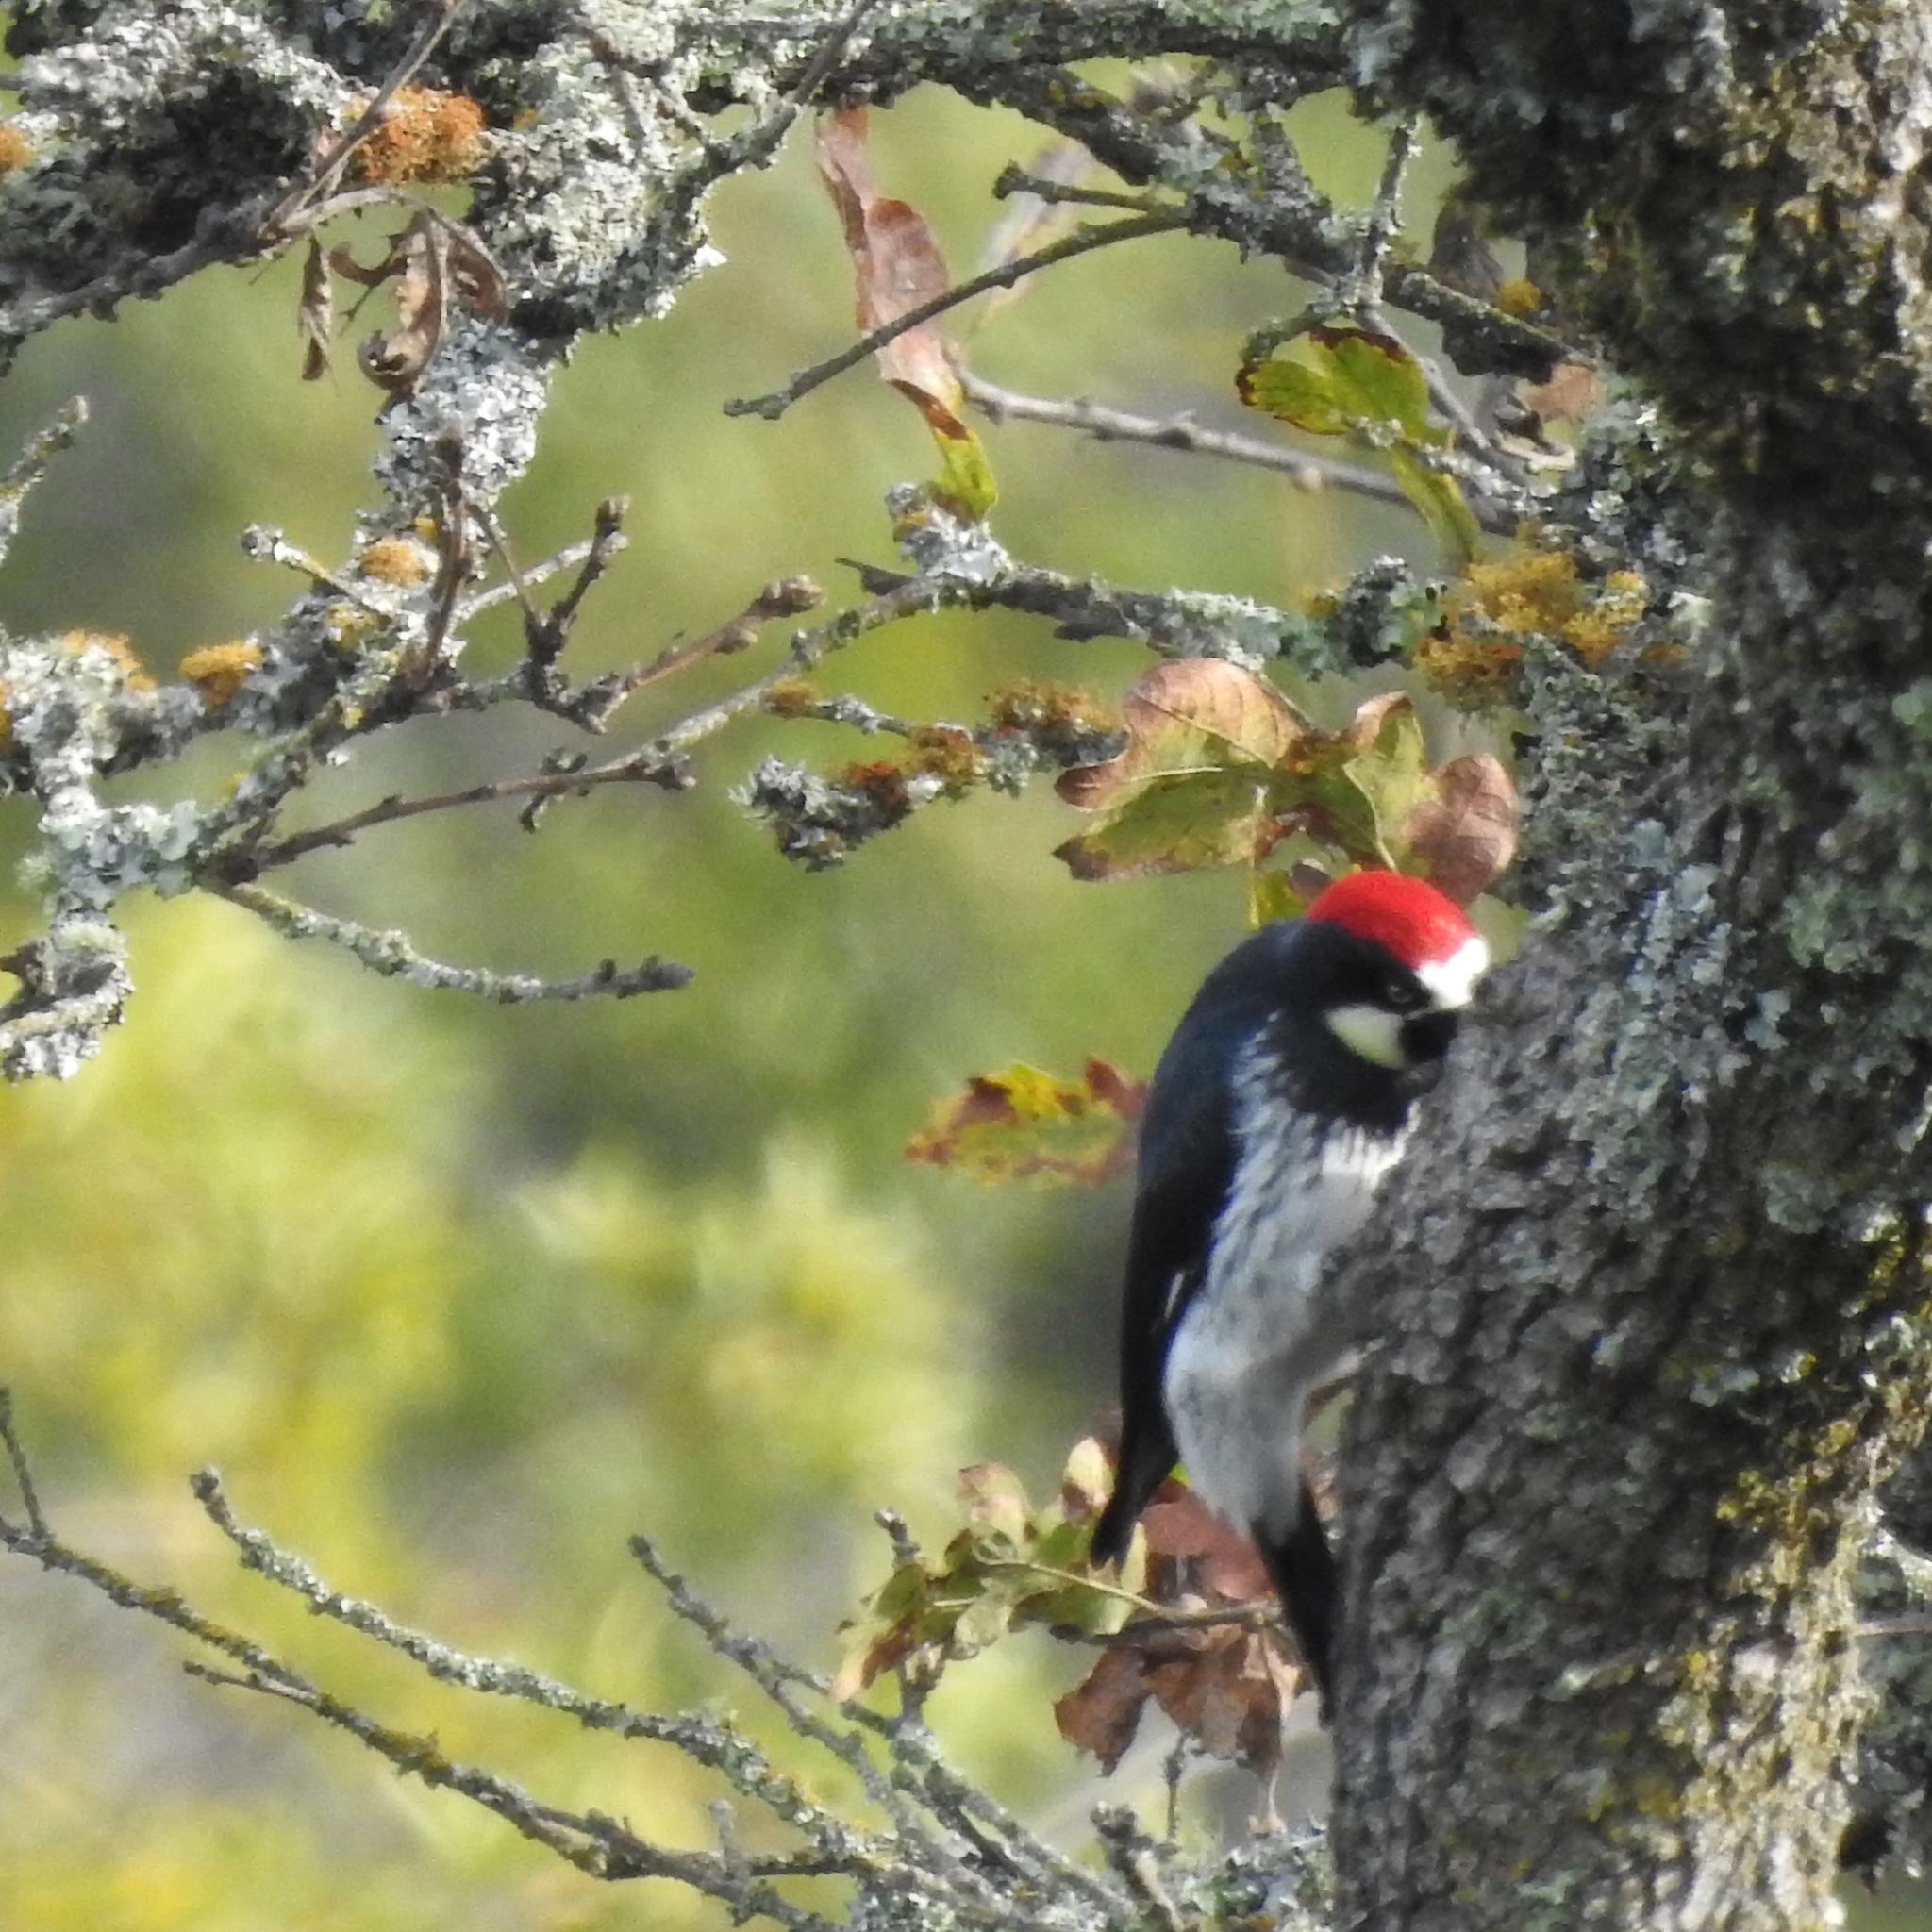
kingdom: Animalia
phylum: Chordata
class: Aves
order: Piciformes
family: Picidae
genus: Melanerpes
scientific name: Melanerpes formicivorus
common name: Acorn woodpecker
